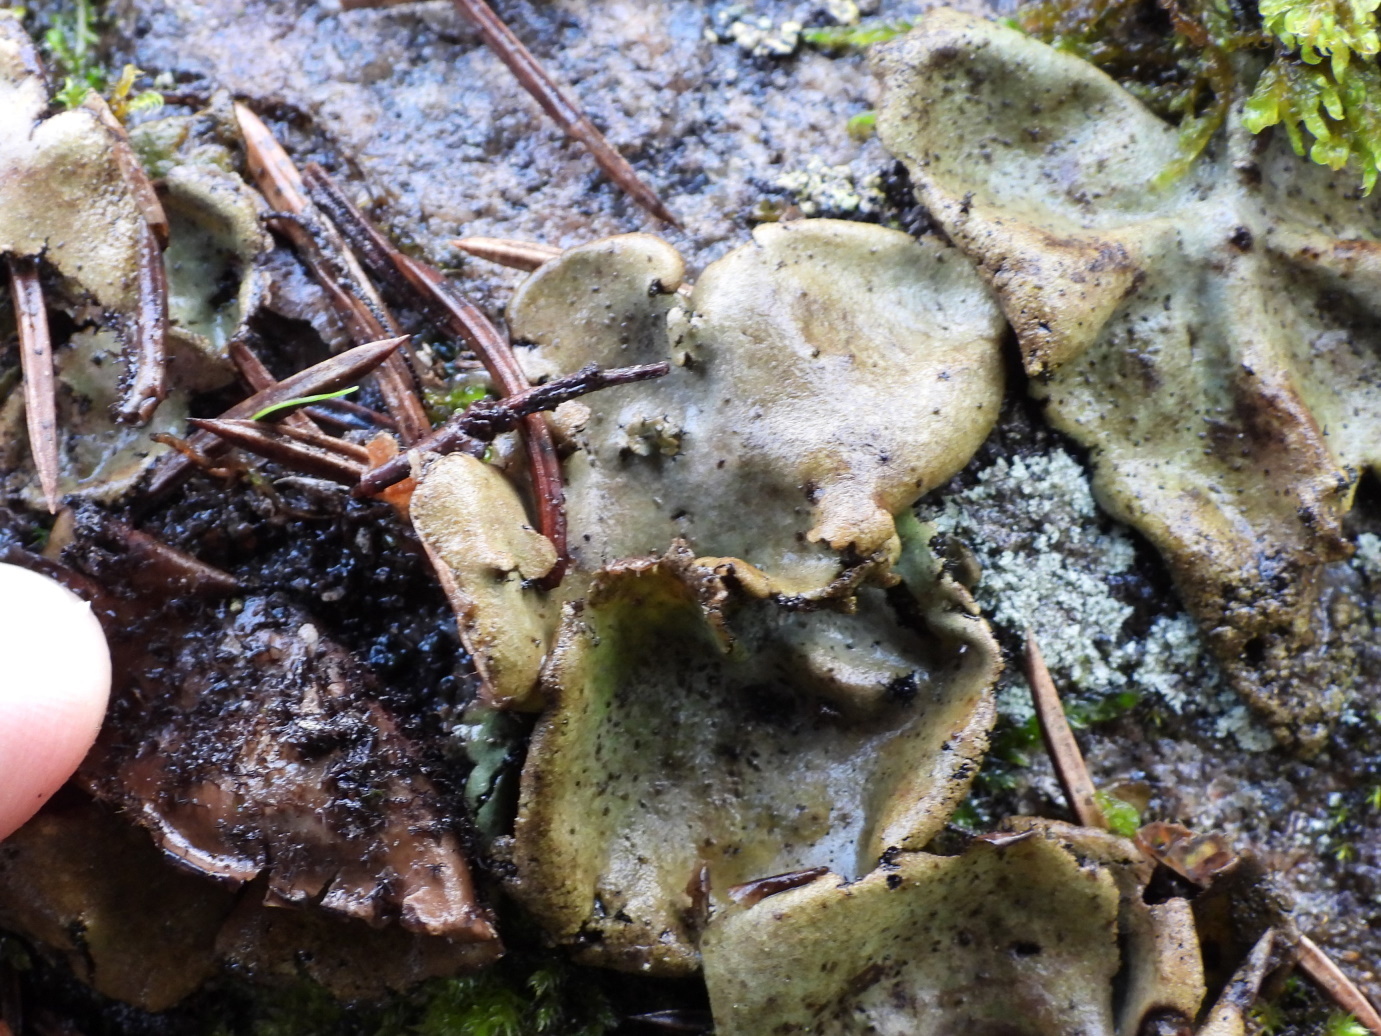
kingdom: Fungi
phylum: Ascomycota
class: Lecanoromycetes
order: Umbilicariales
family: Umbilicariaceae
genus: Umbilicaria
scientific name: Umbilicaria vellea
